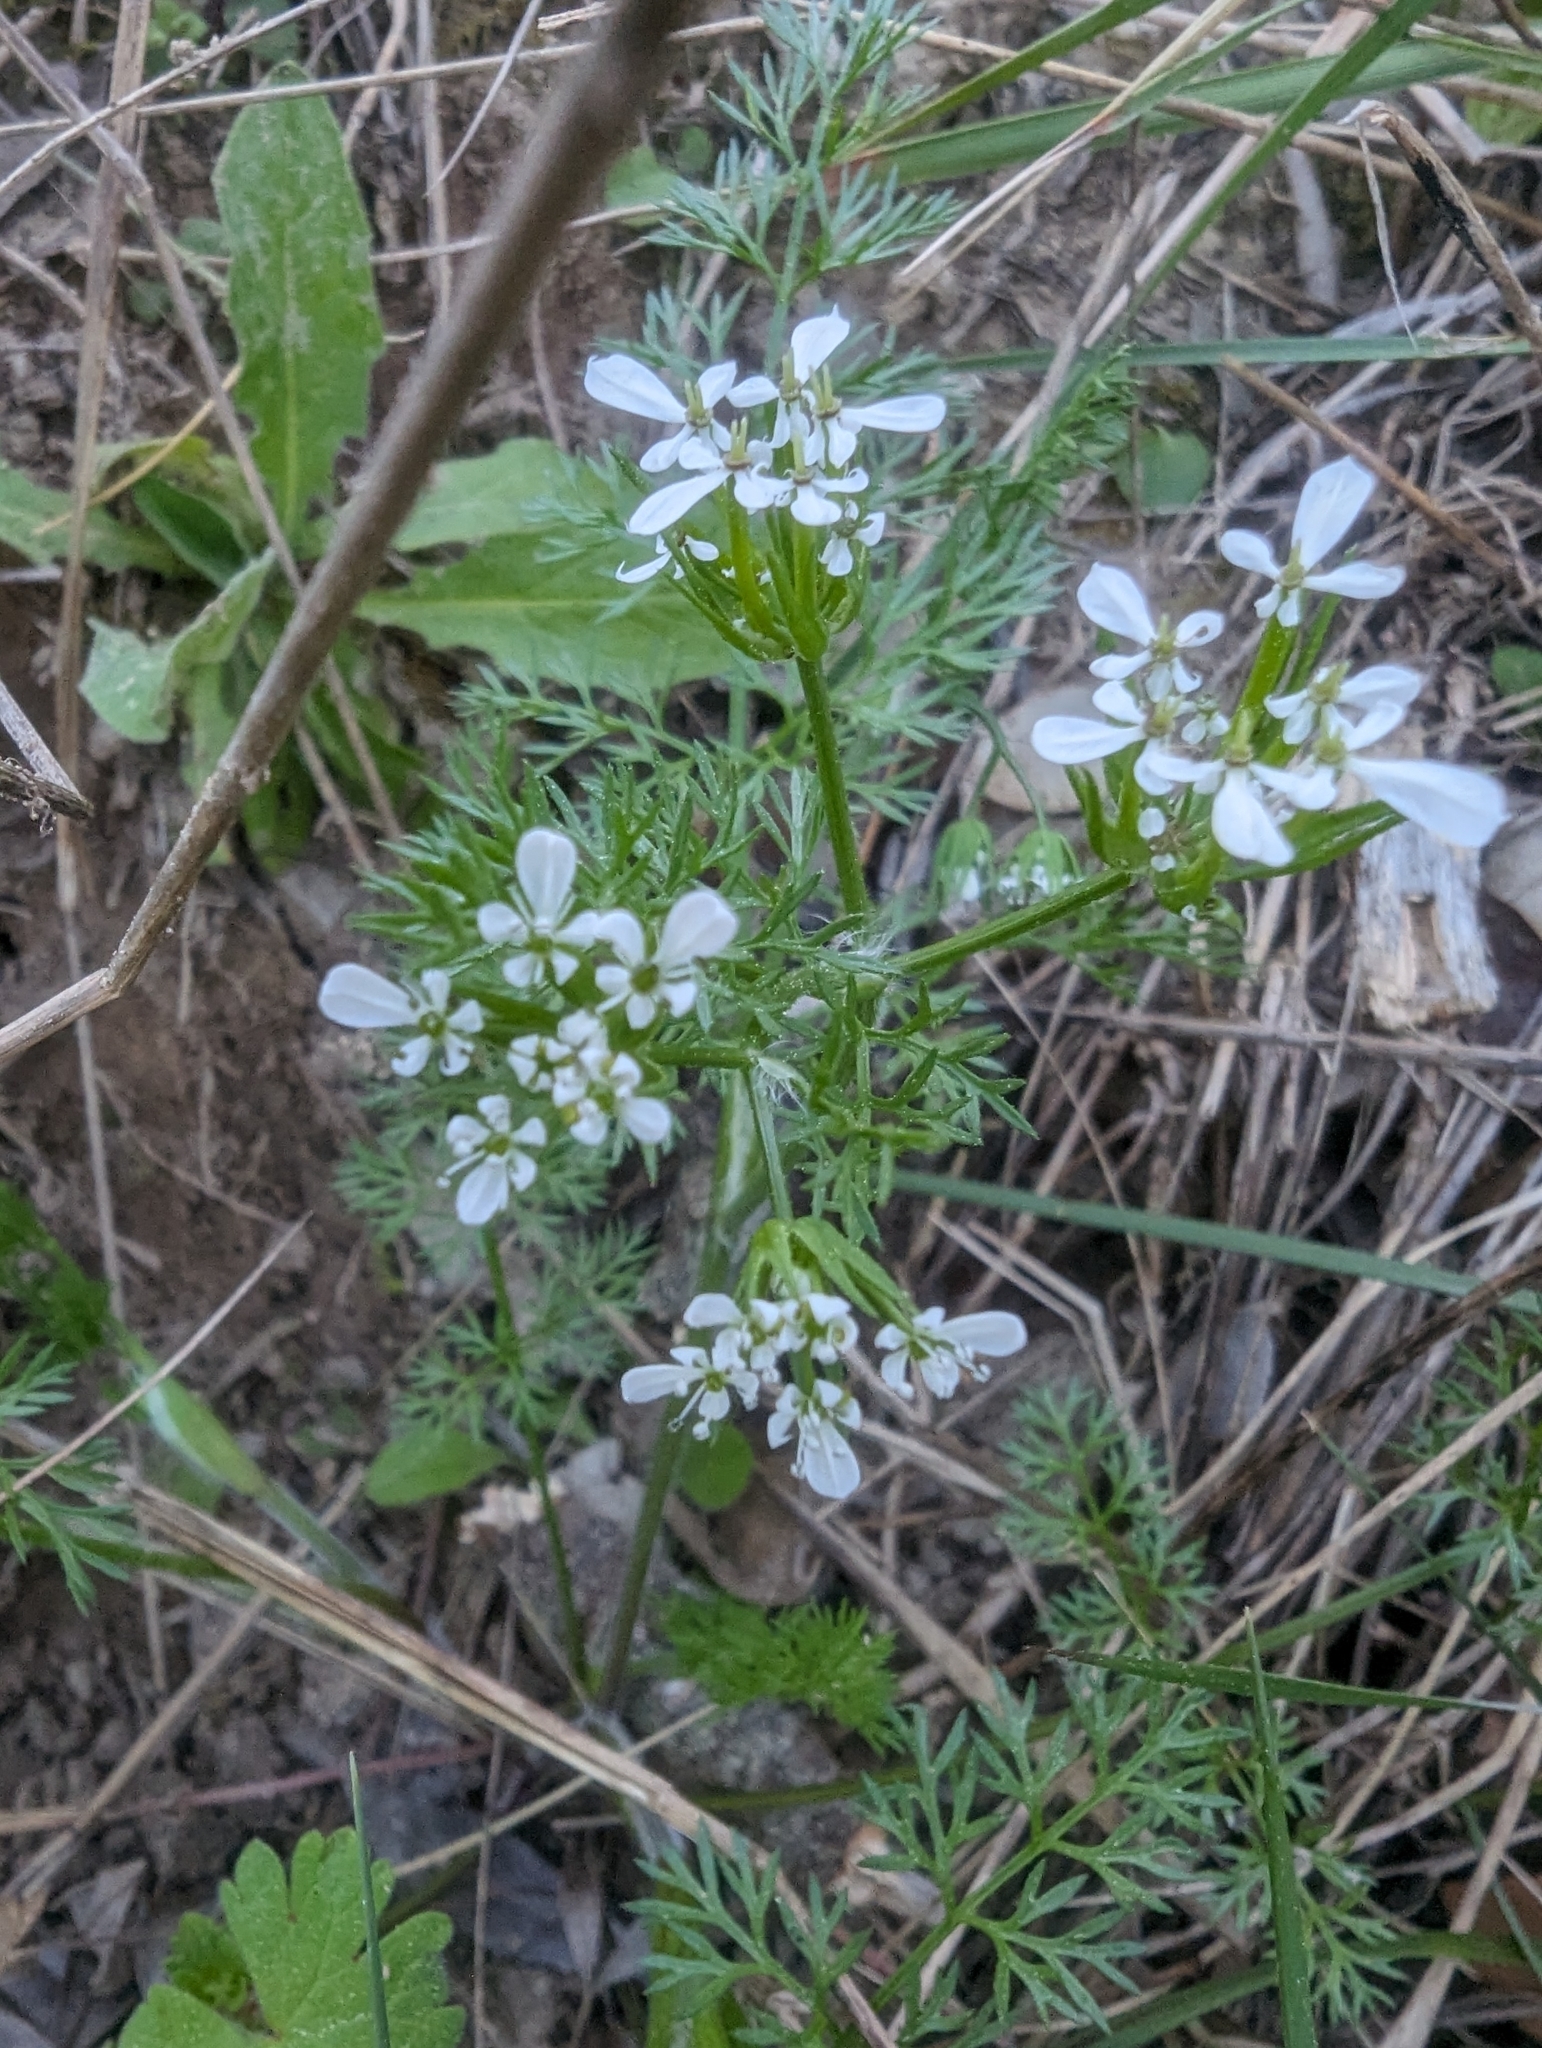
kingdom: Plantae
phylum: Tracheophyta
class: Magnoliopsida
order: Apiales
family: Apiaceae
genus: Scandix
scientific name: Scandix pecten-veneris
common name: Shepherd's-needle
